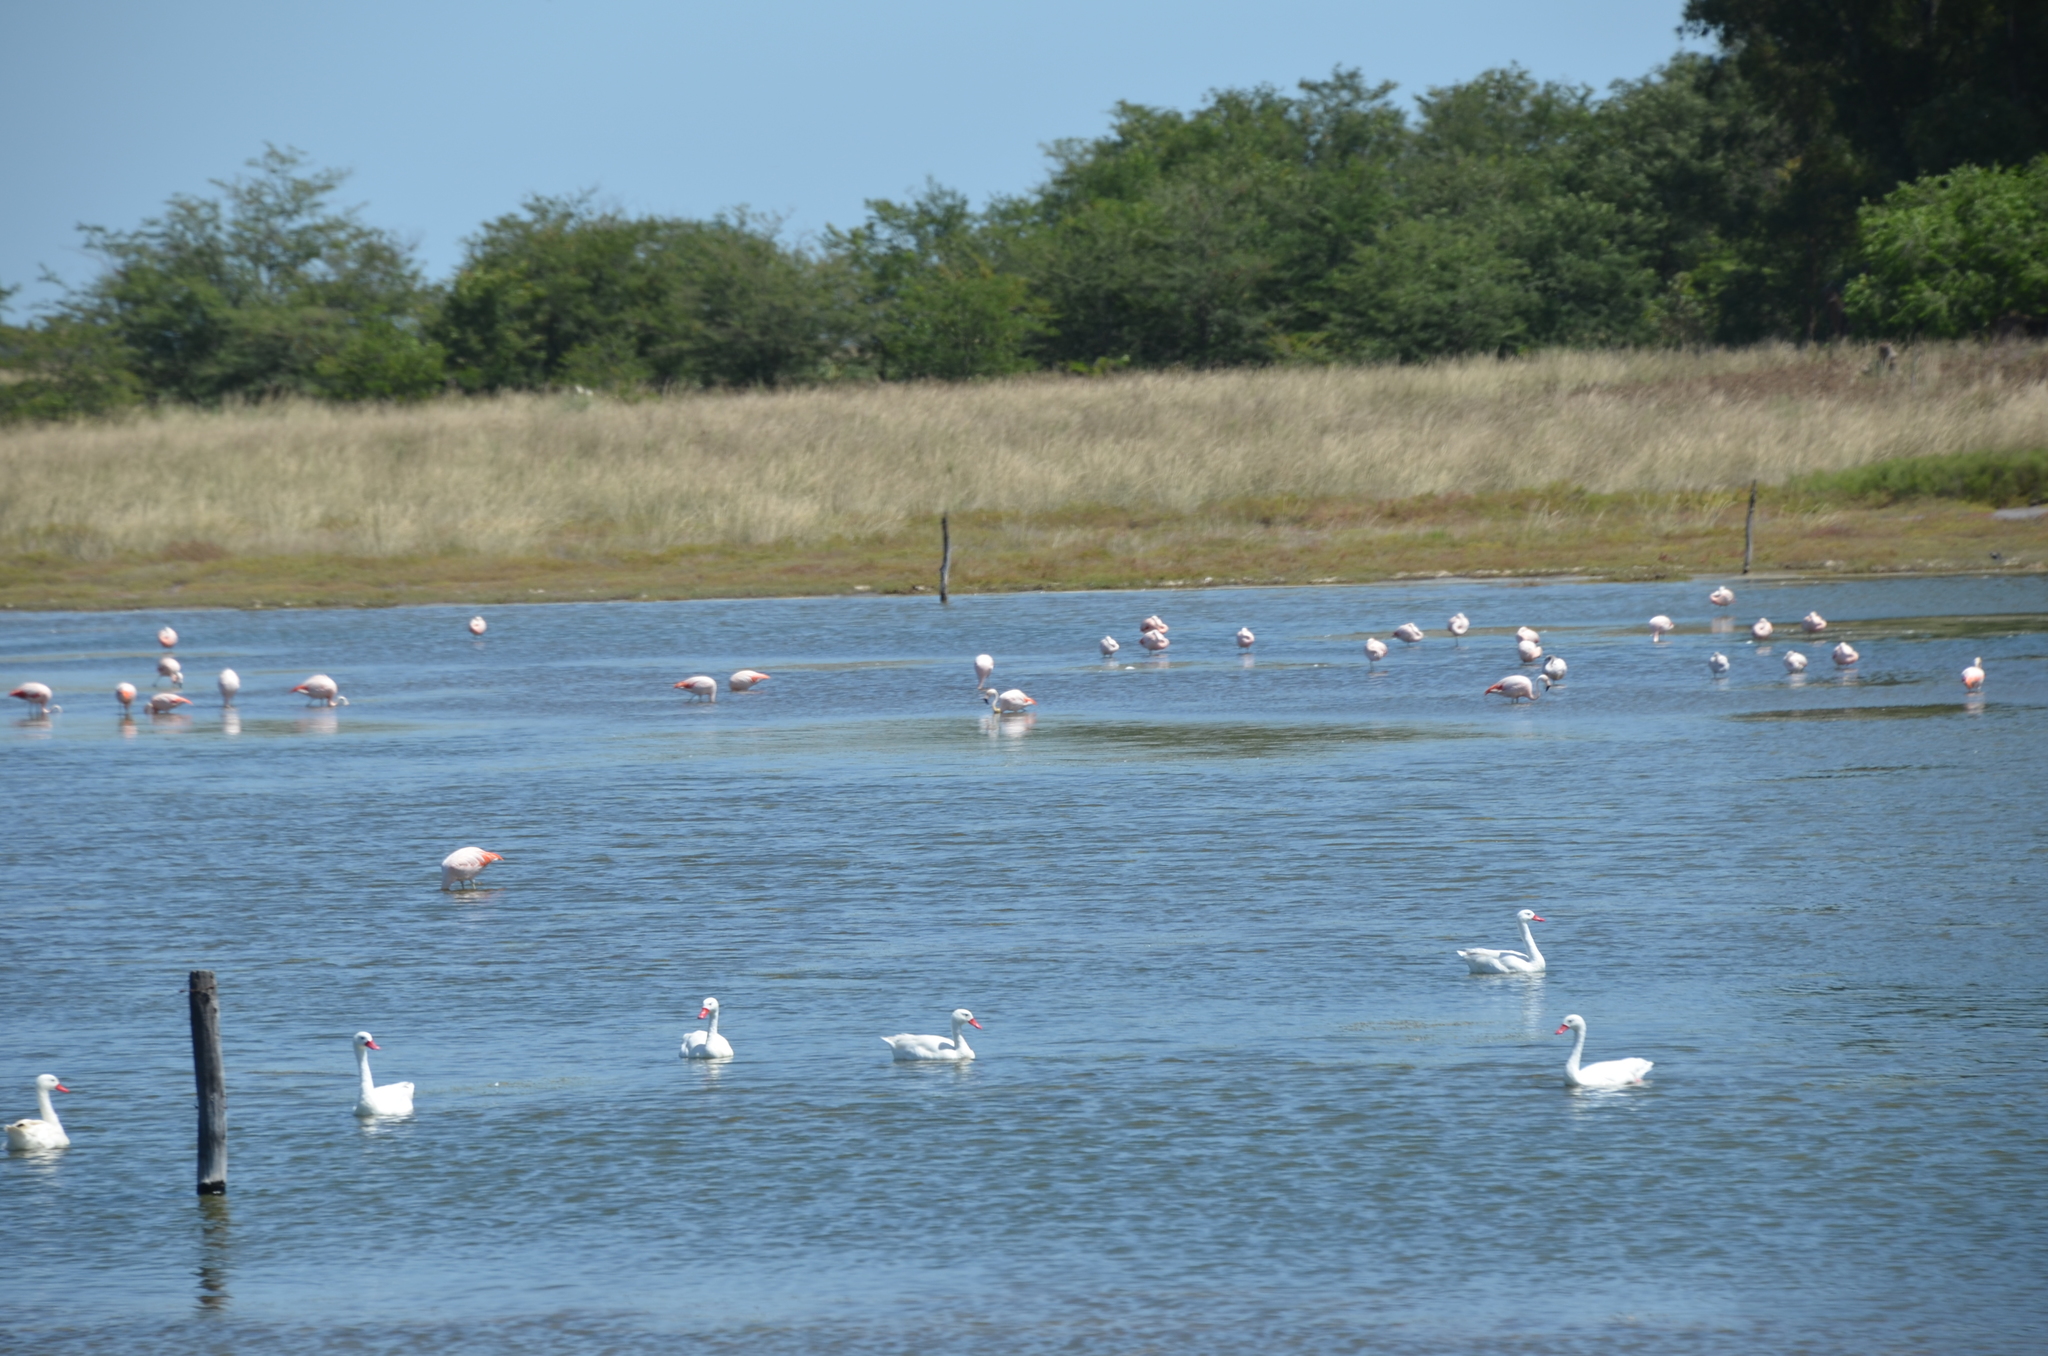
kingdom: Animalia
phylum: Chordata
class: Aves
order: Anseriformes
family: Anatidae
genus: Coscoroba
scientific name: Coscoroba coscoroba
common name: Coscoroba swan
